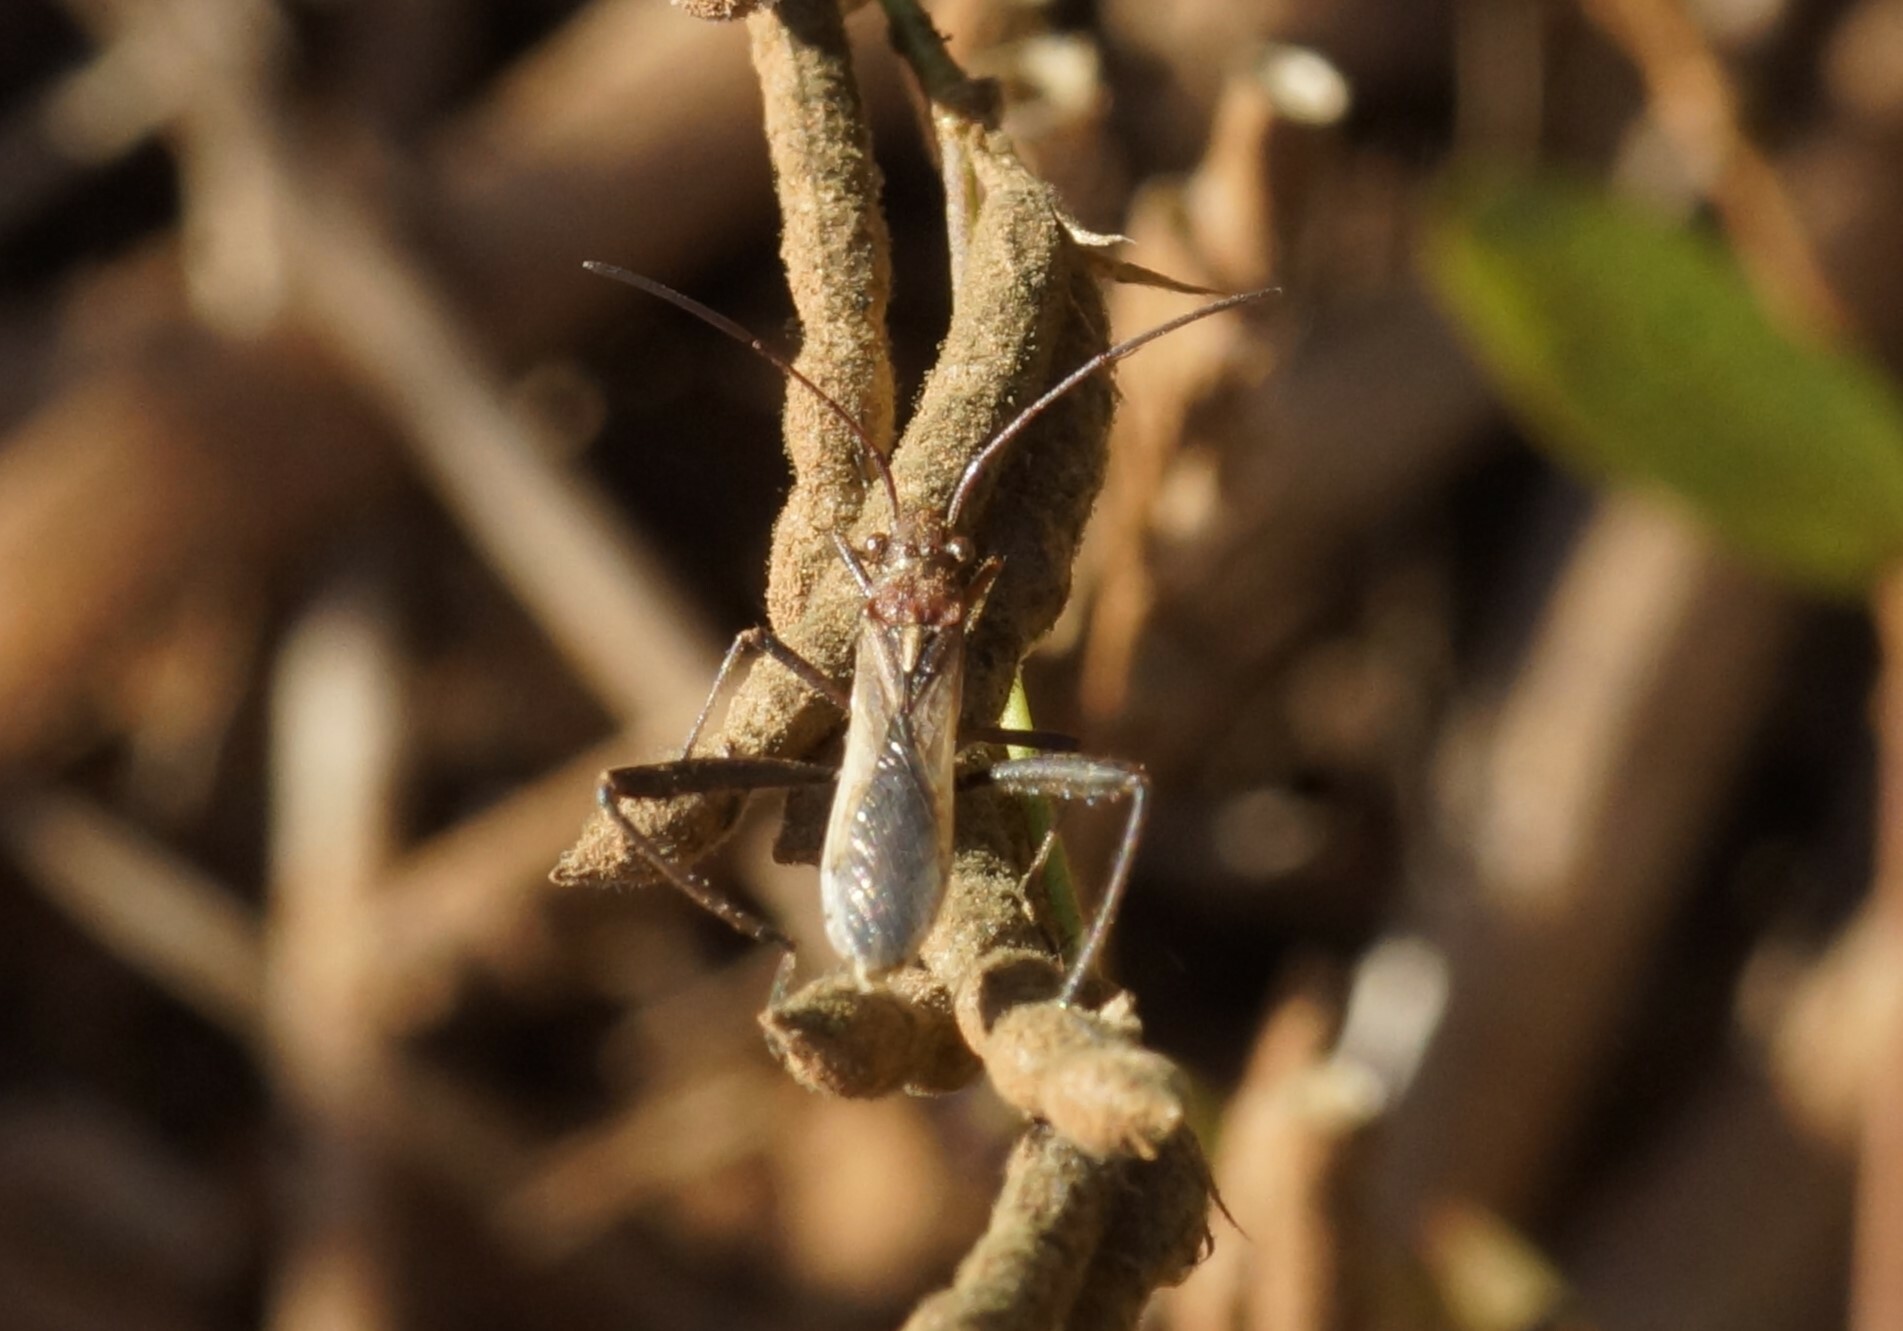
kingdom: Animalia
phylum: Arthropoda
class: Insecta
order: Hemiptera
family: Alydidae
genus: Melanacanthus
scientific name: Melanacanthus scutellaris
